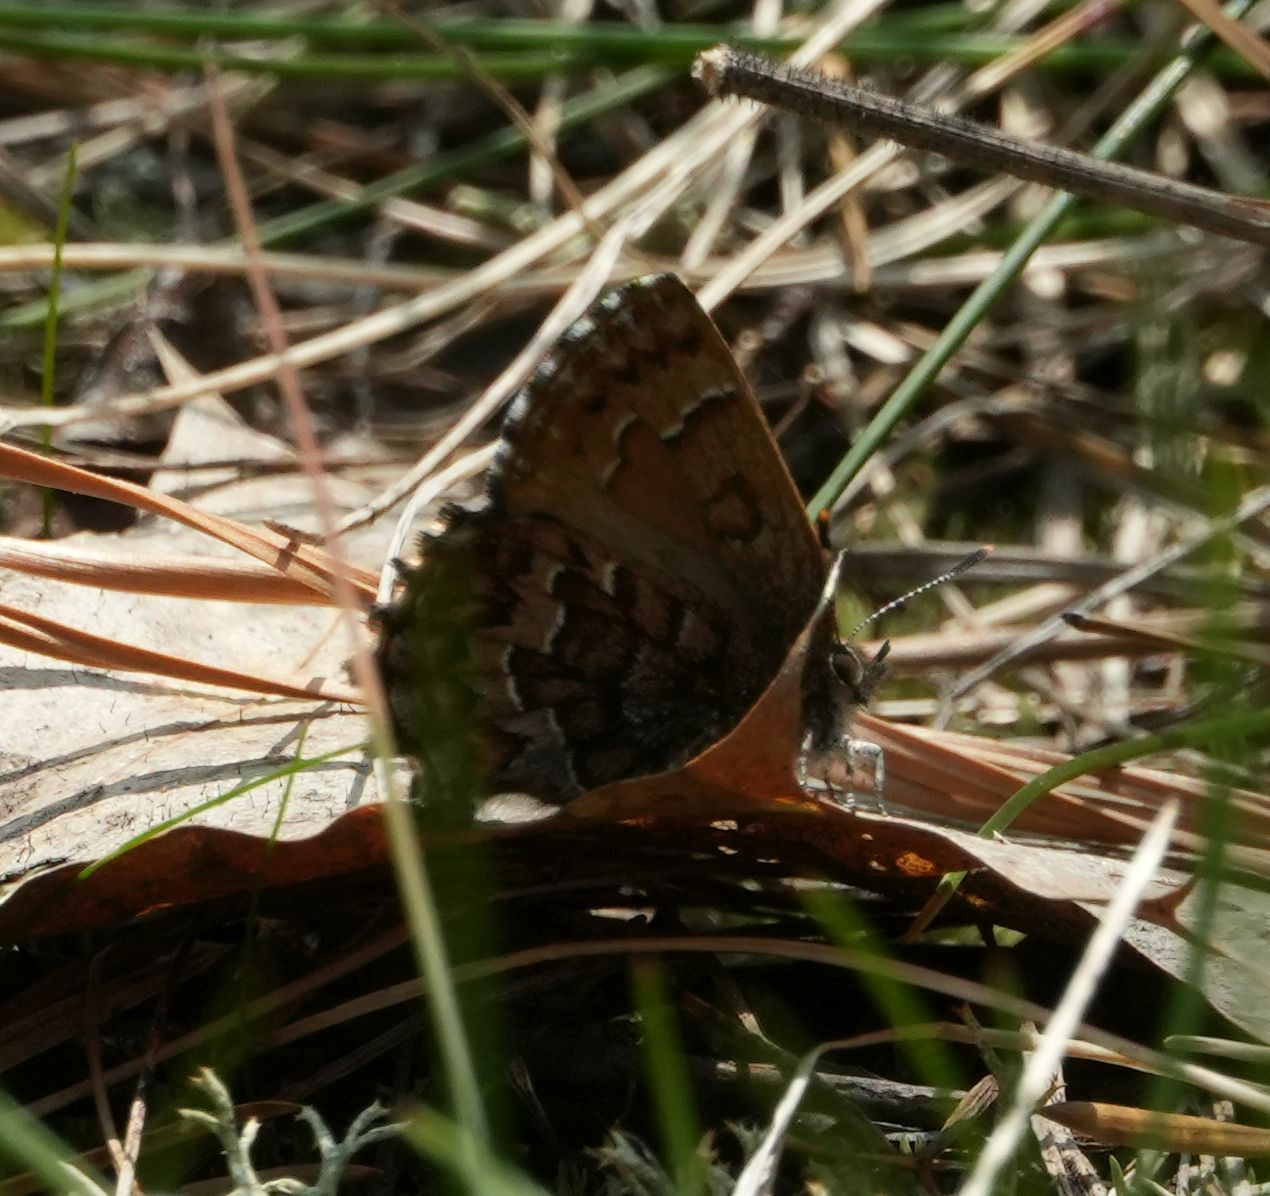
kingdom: Animalia
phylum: Arthropoda
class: Insecta
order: Lepidoptera
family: Lycaenidae
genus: Incisalia
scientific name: Incisalia niphon
